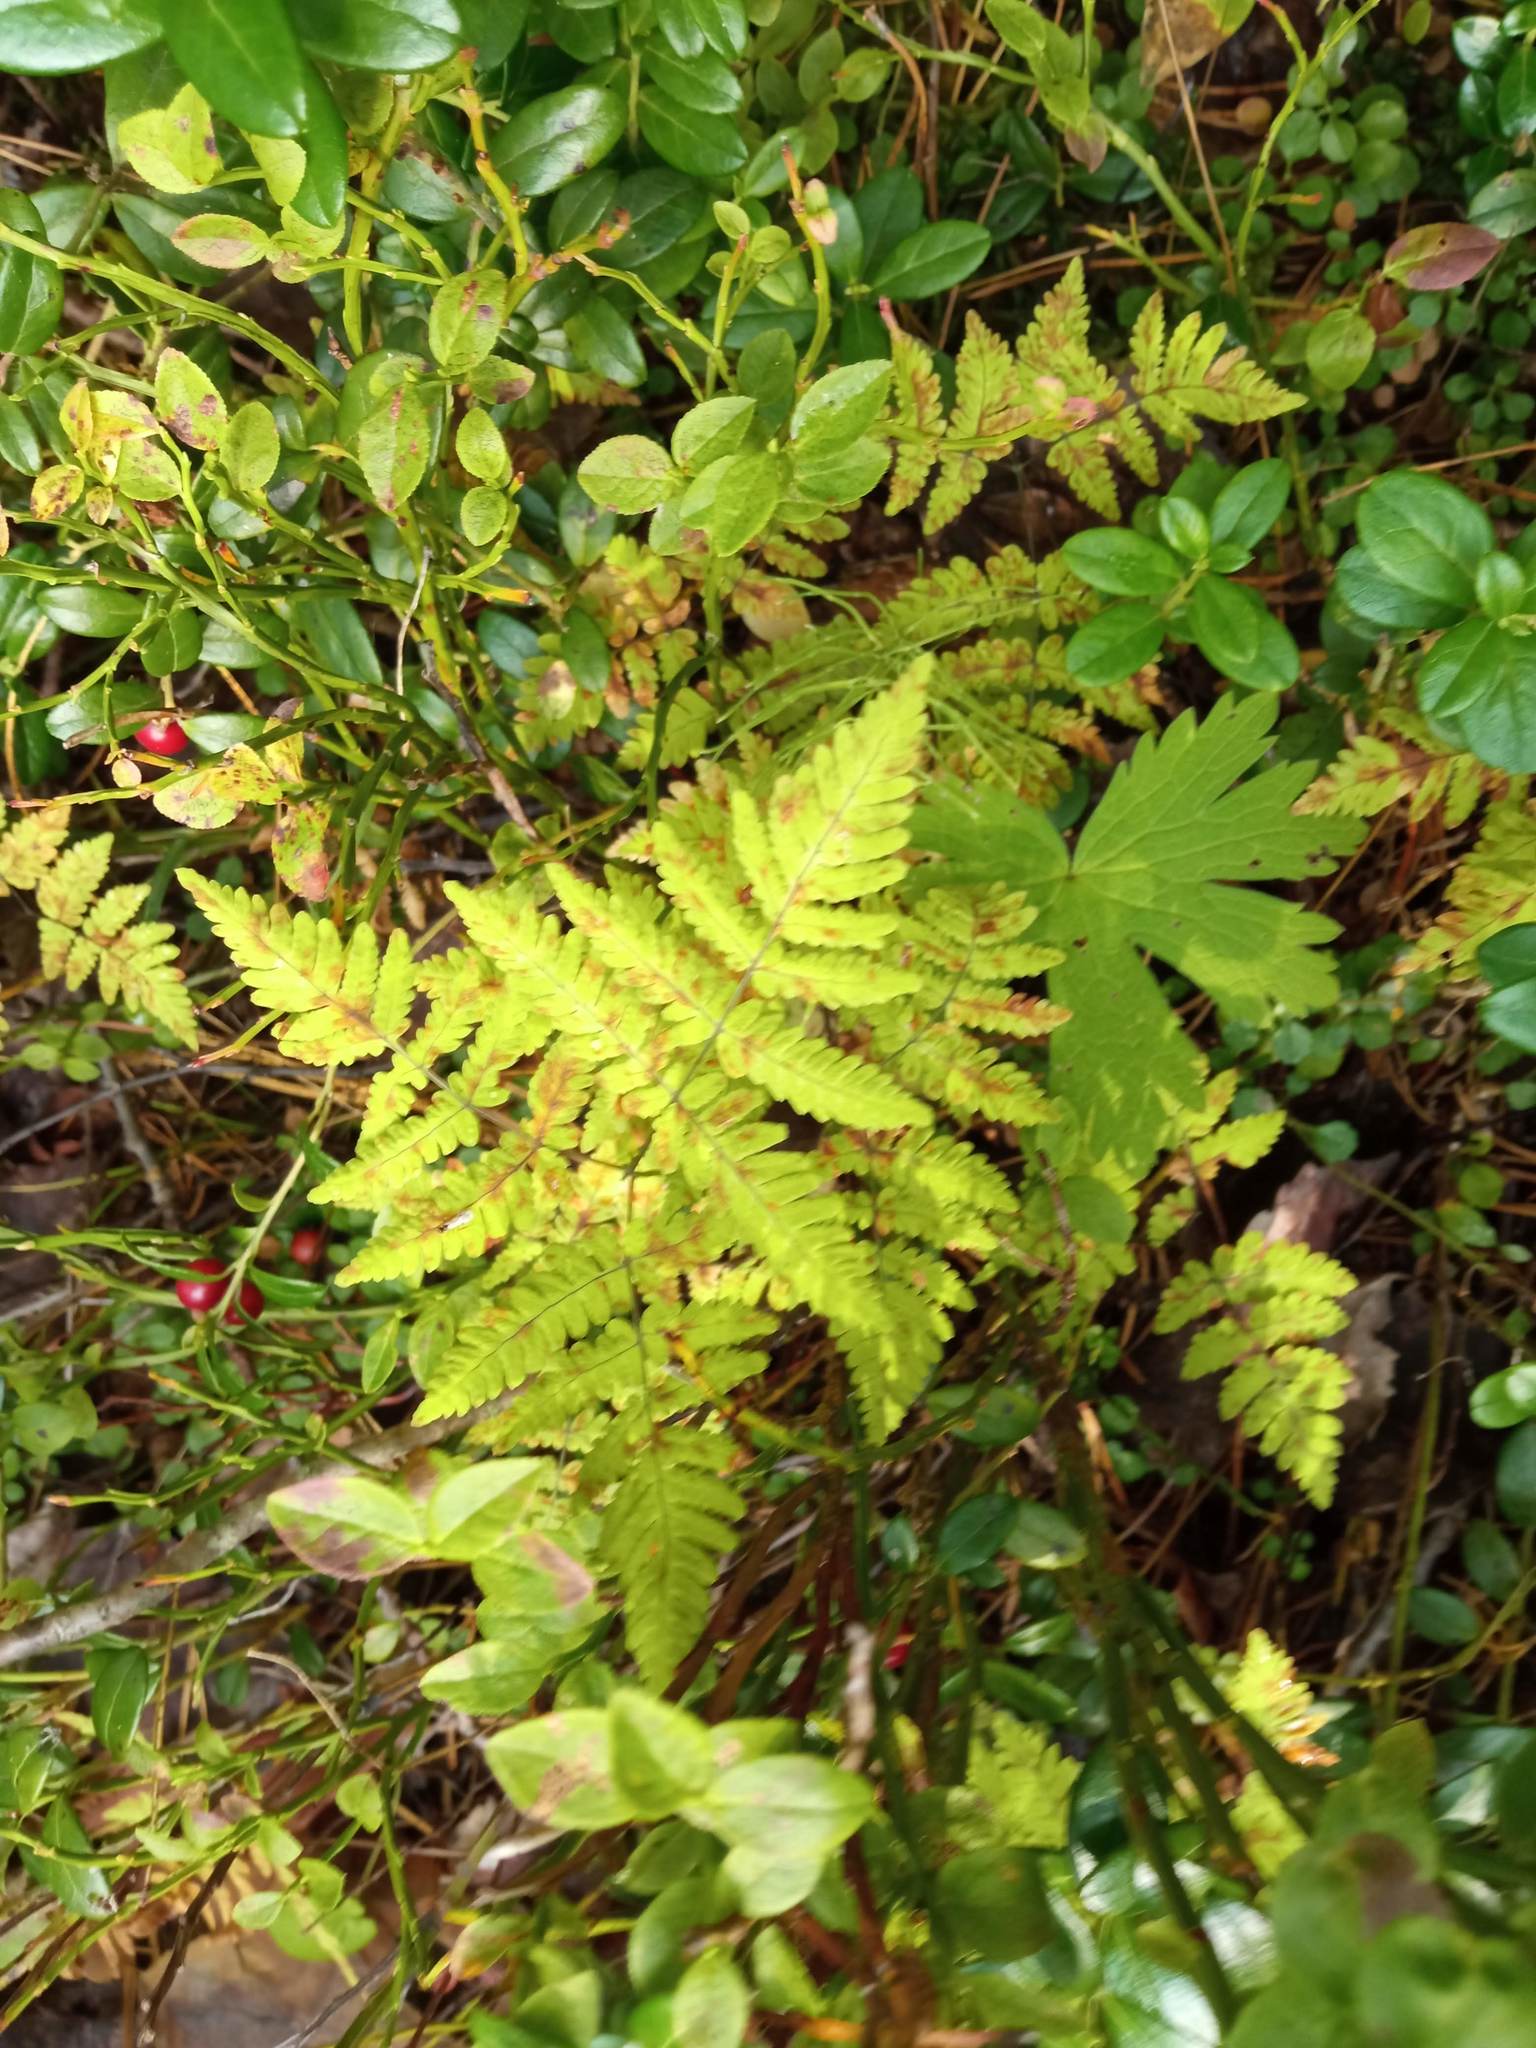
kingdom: Plantae
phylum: Tracheophyta
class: Polypodiopsida
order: Polypodiales
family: Cystopteridaceae
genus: Gymnocarpium
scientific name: Gymnocarpium dryopteris
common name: Oak fern
